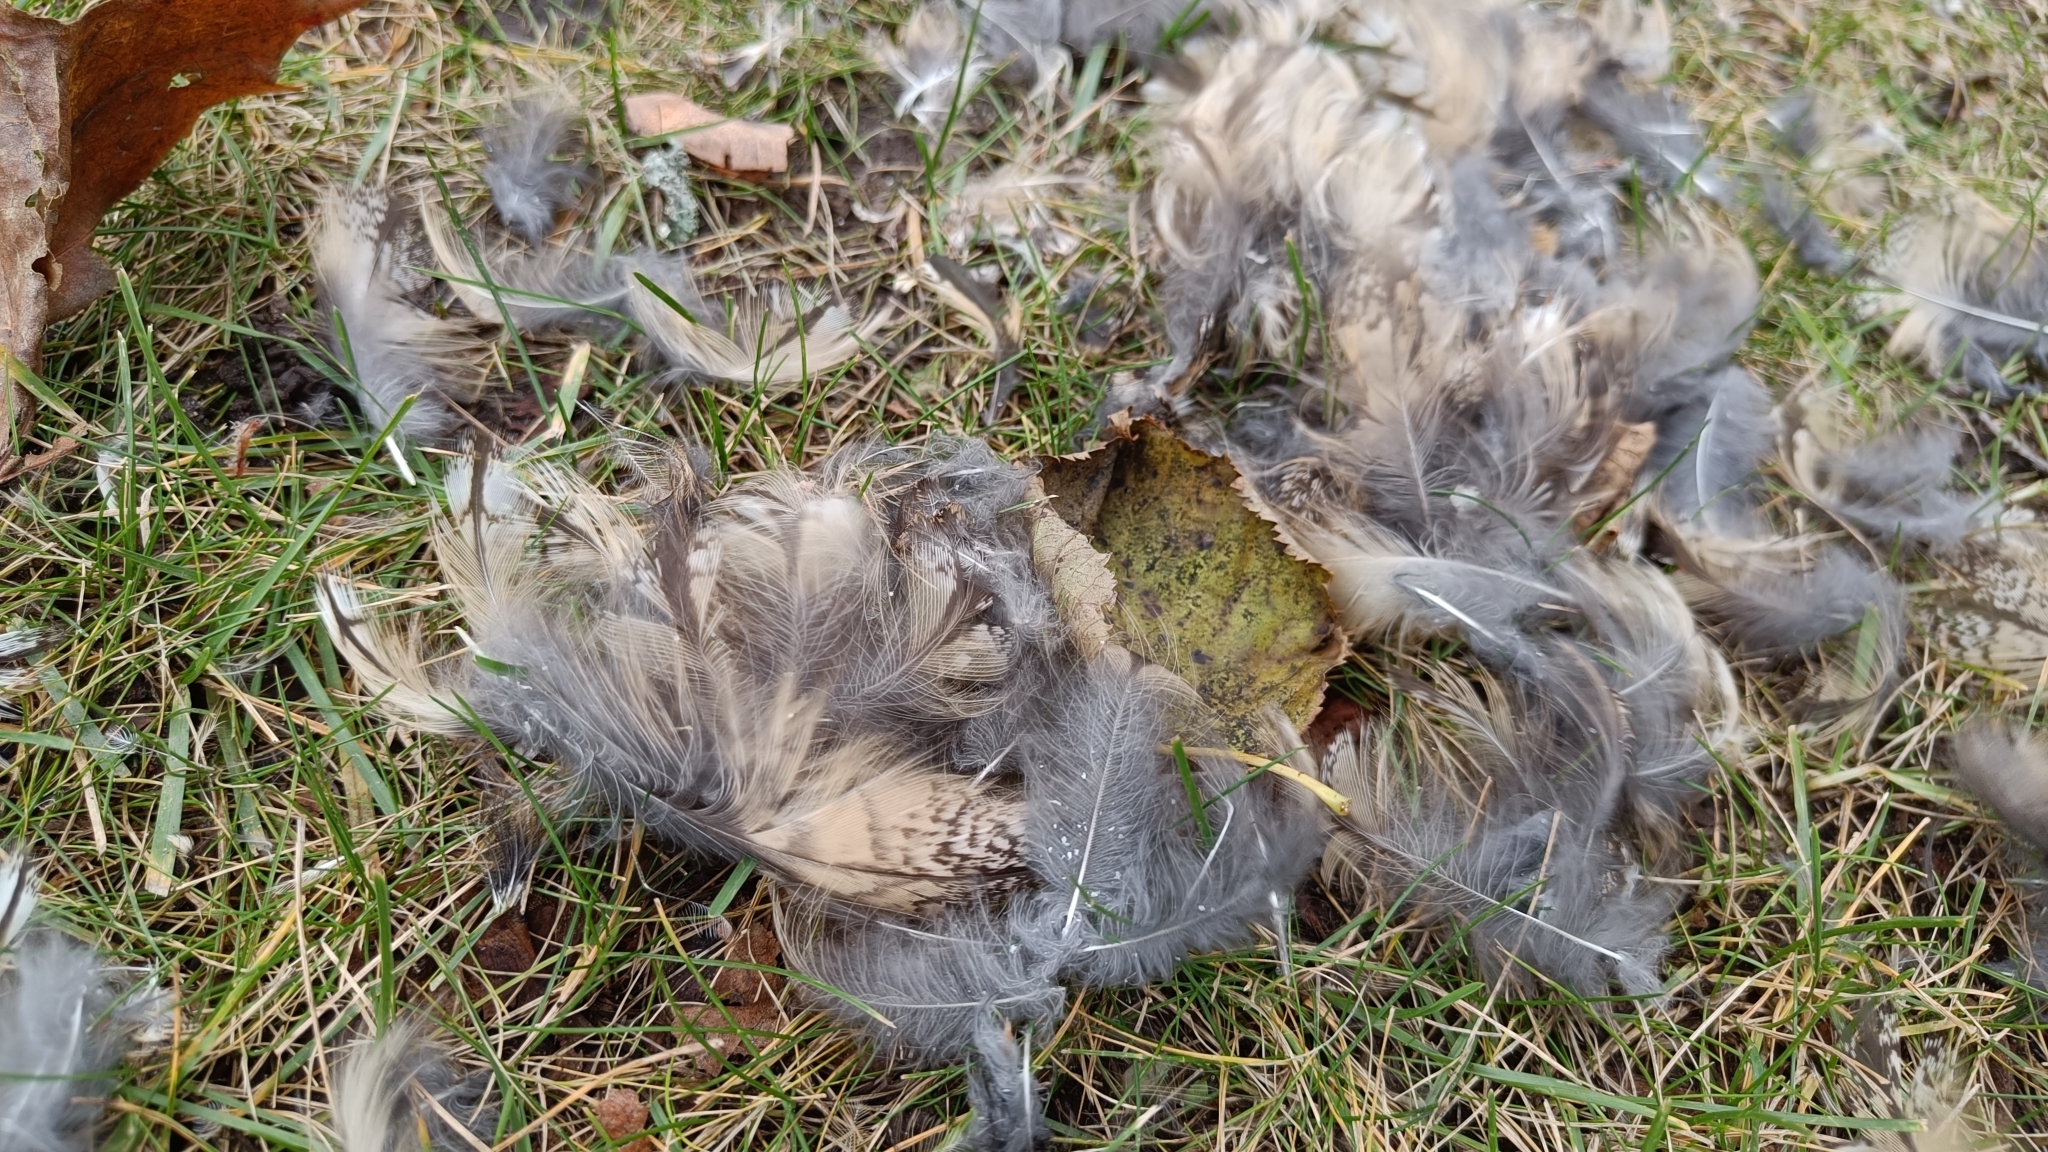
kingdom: Animalia
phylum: Chordata
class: Aves
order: Strigiformes
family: Strigidae
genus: Asio
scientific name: Asio otus
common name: Long-eared owl
